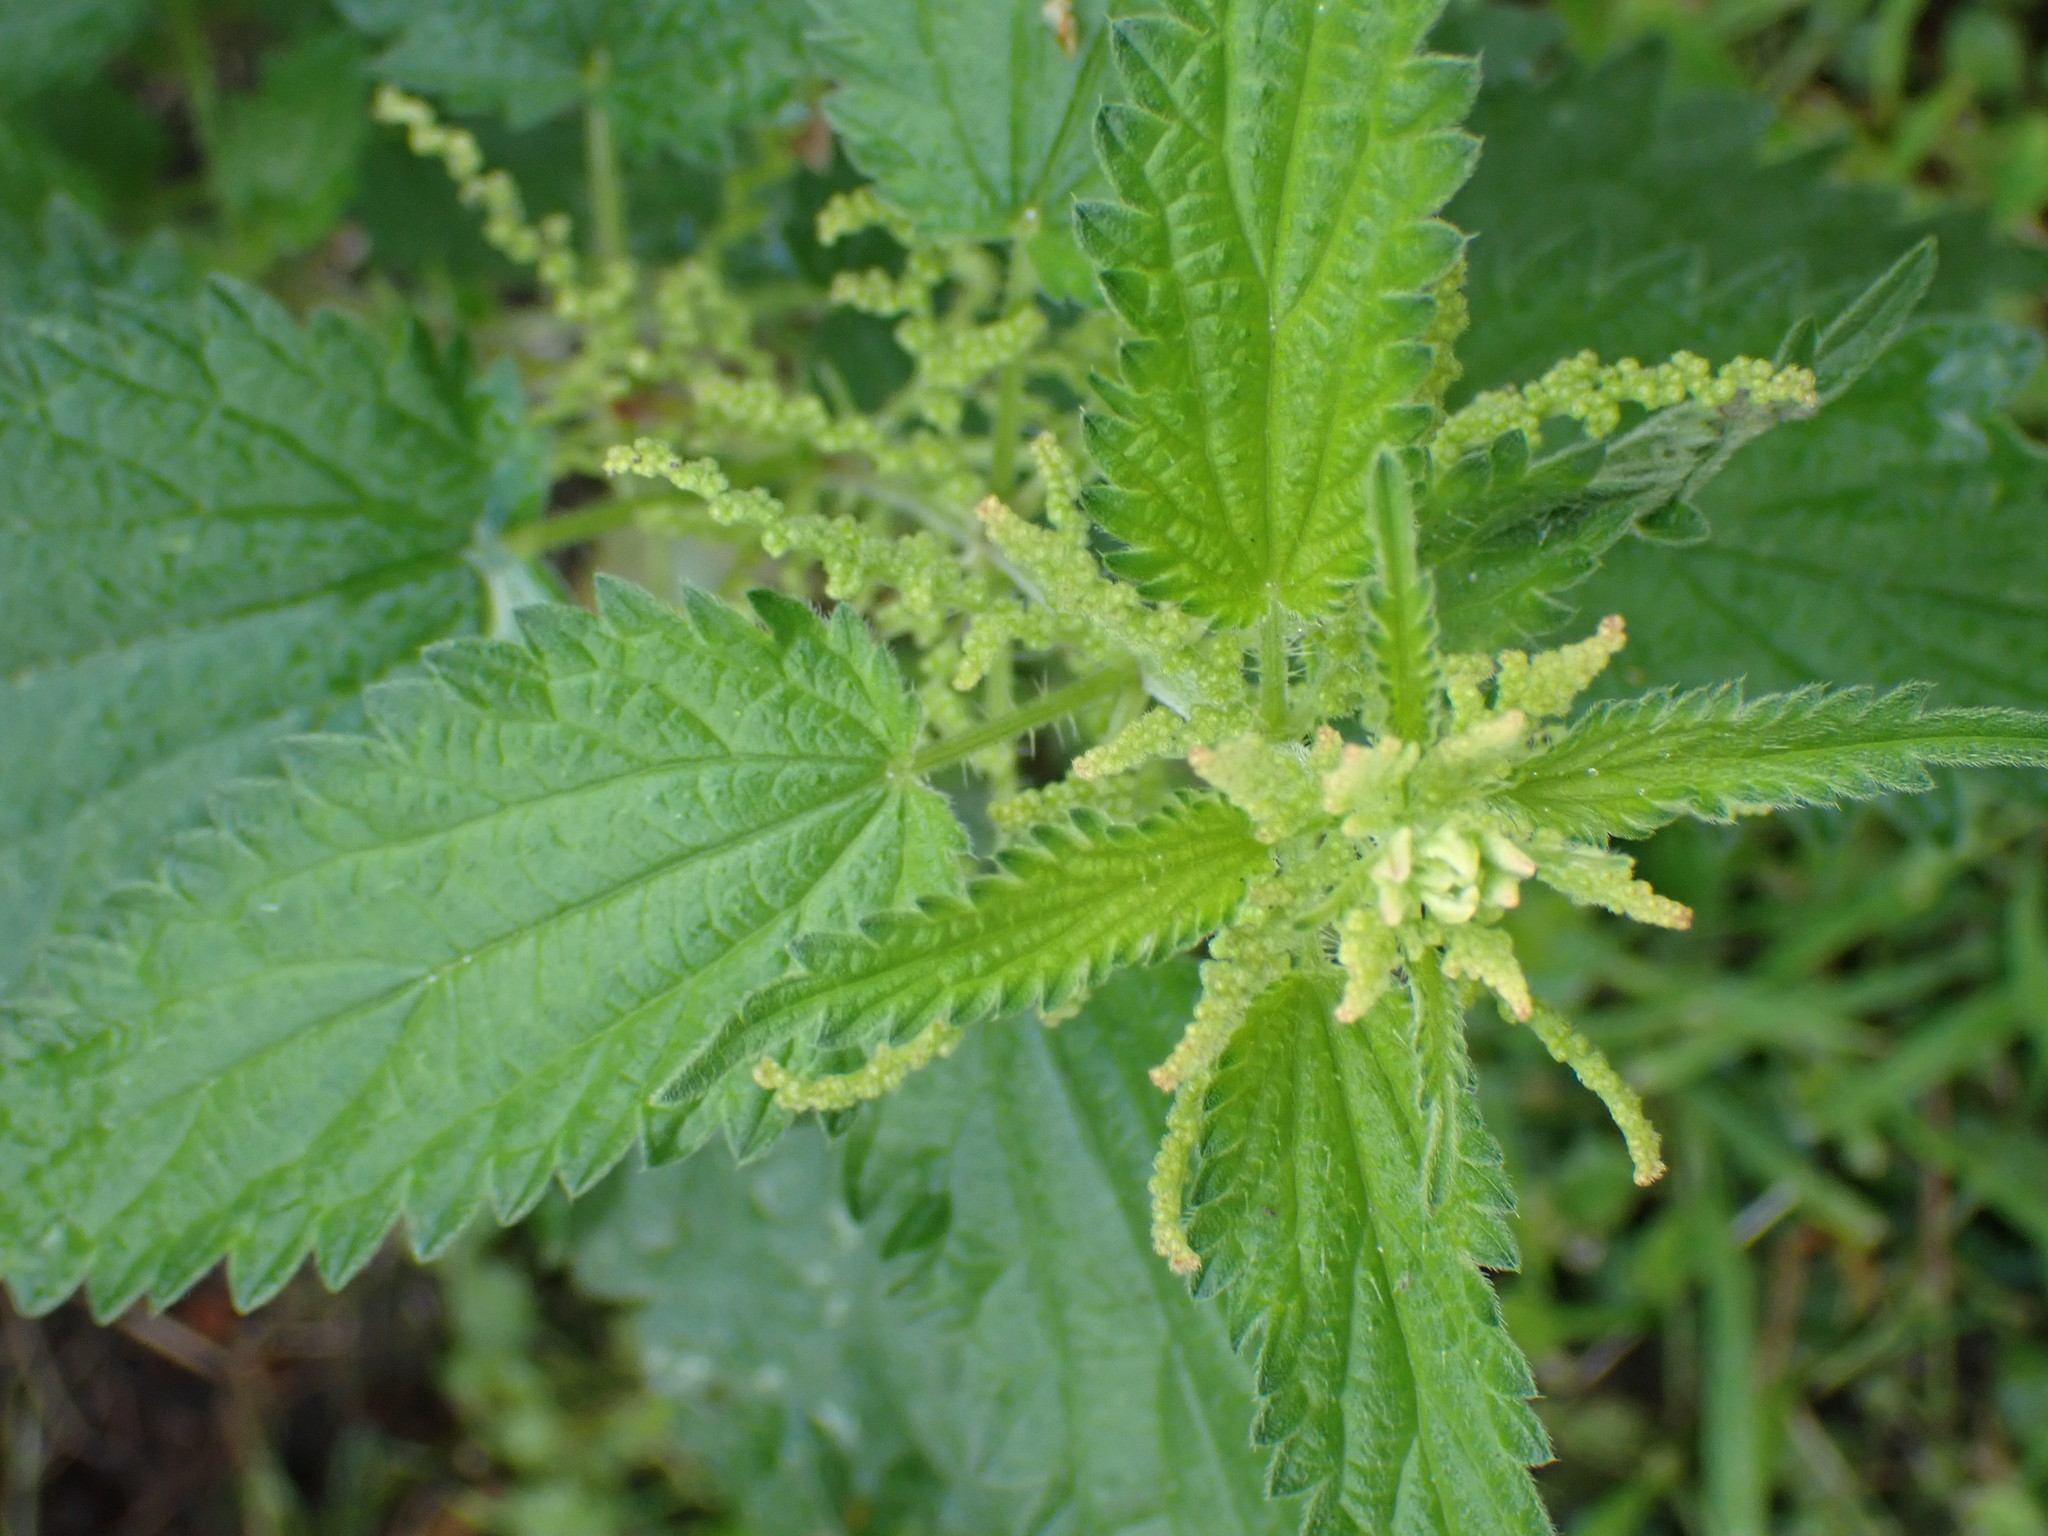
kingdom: Plantae
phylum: Tracheophyta
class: Magnoliopsida
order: Rosales
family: Urticaceae
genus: Urtica
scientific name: Urtica dioica
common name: Common nettle
